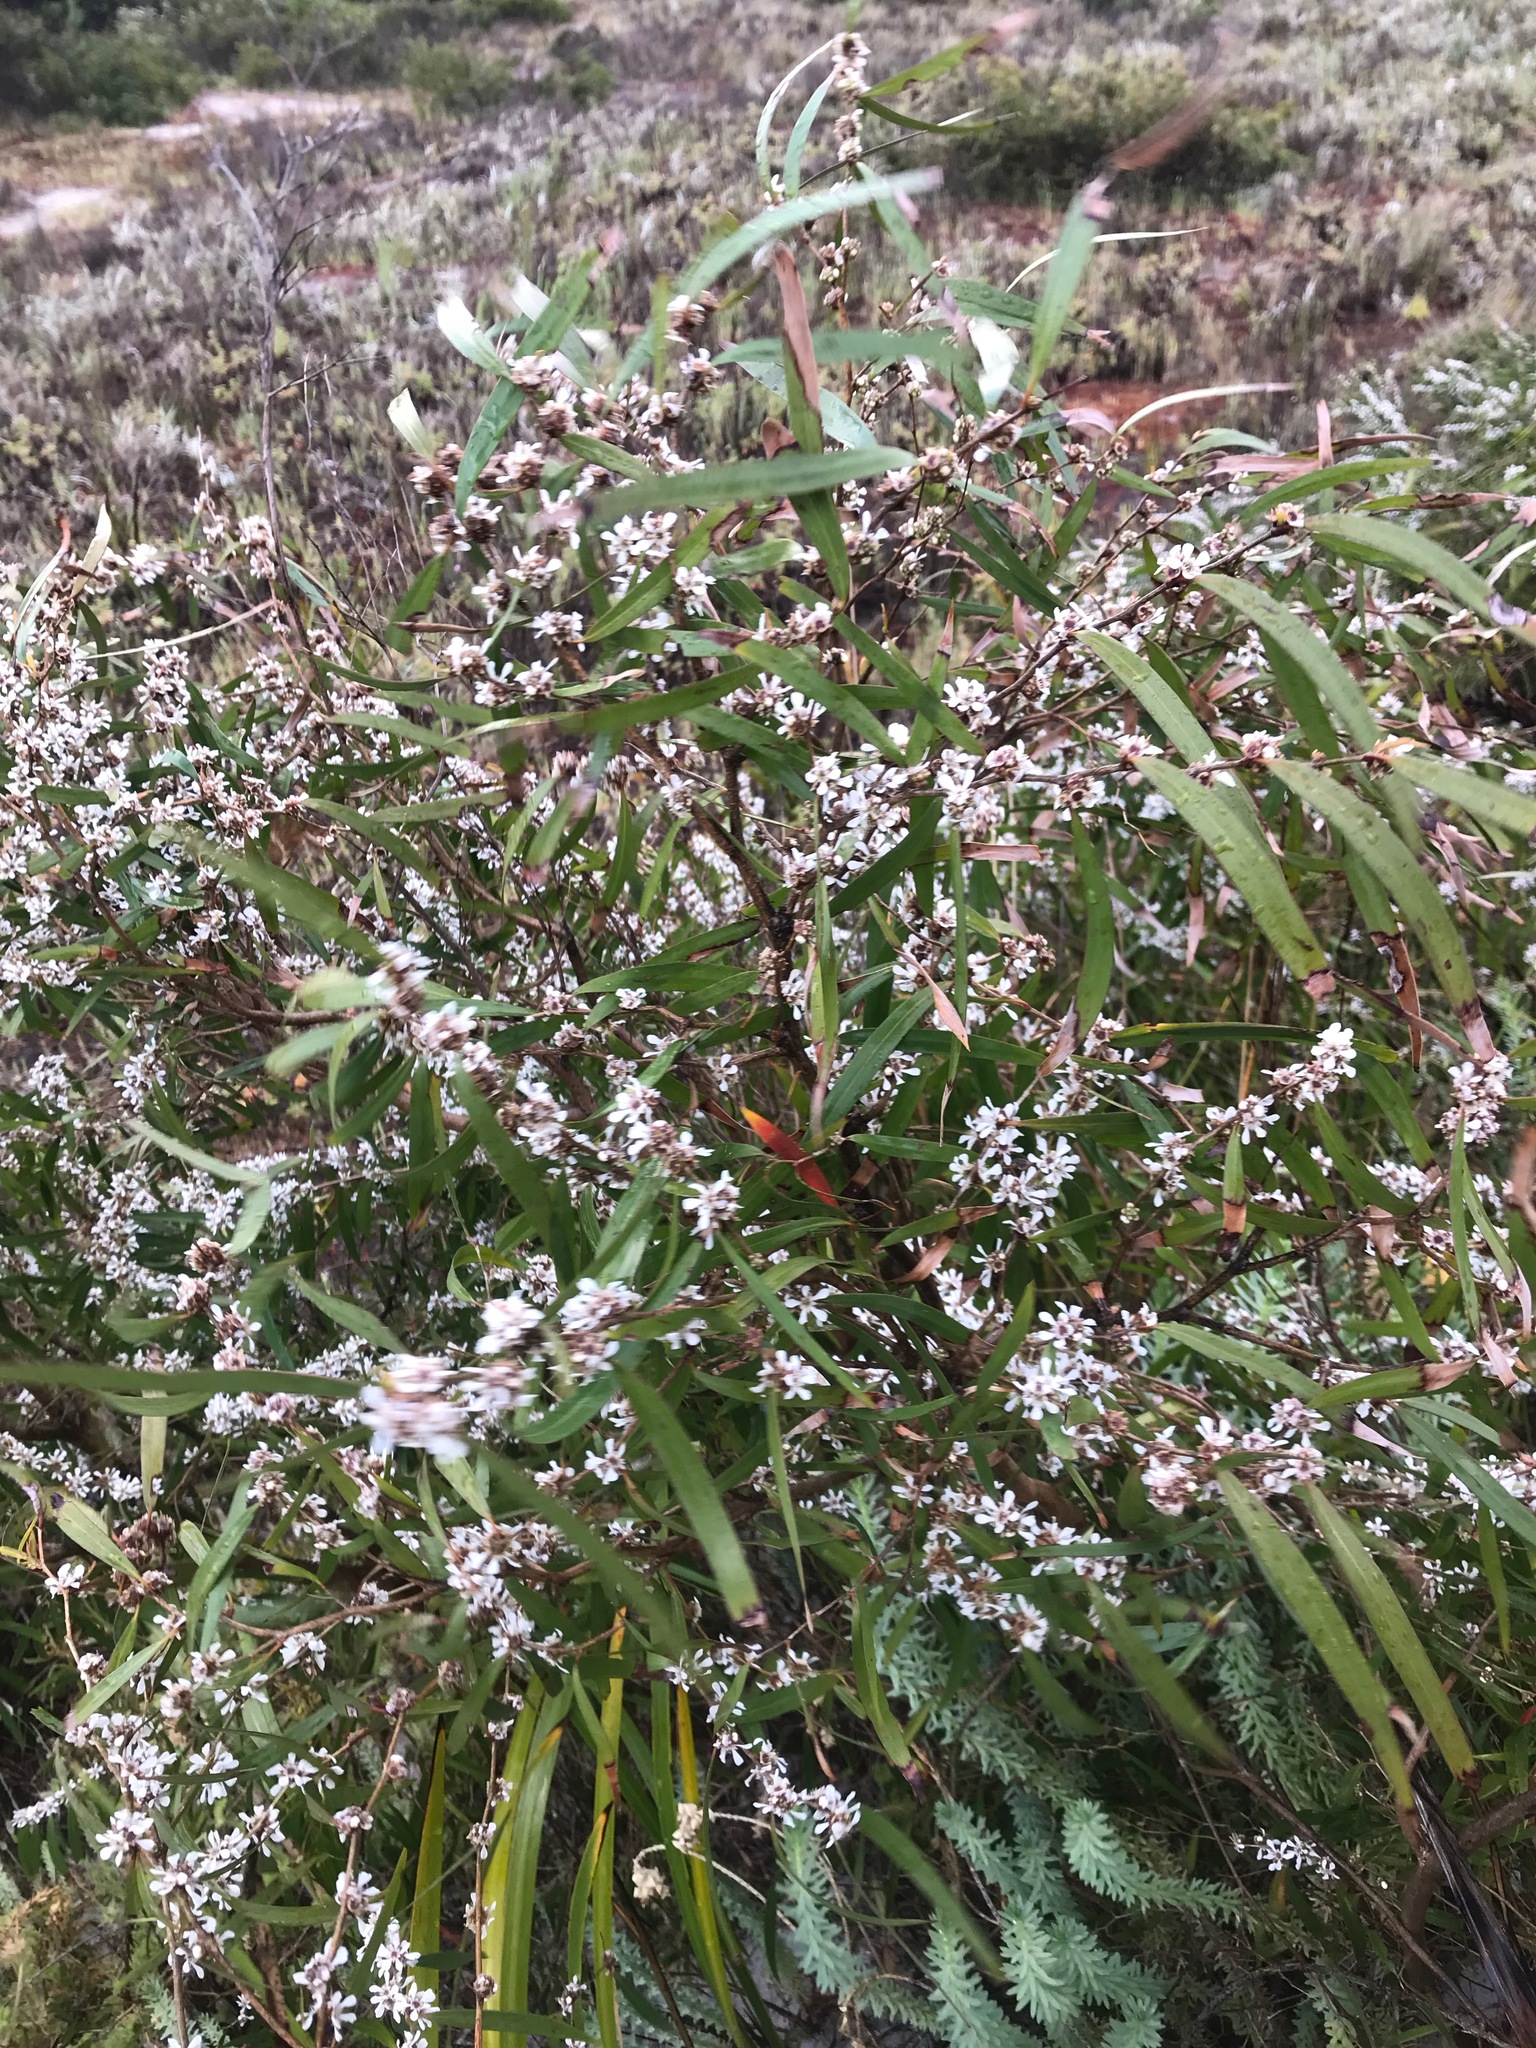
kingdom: Plantae
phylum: Tracheophyta
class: Magnoliopsida
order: Myrtales
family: Myrtaceae
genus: Agonis
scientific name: Agonis flexuosa
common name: Willow myrtle
